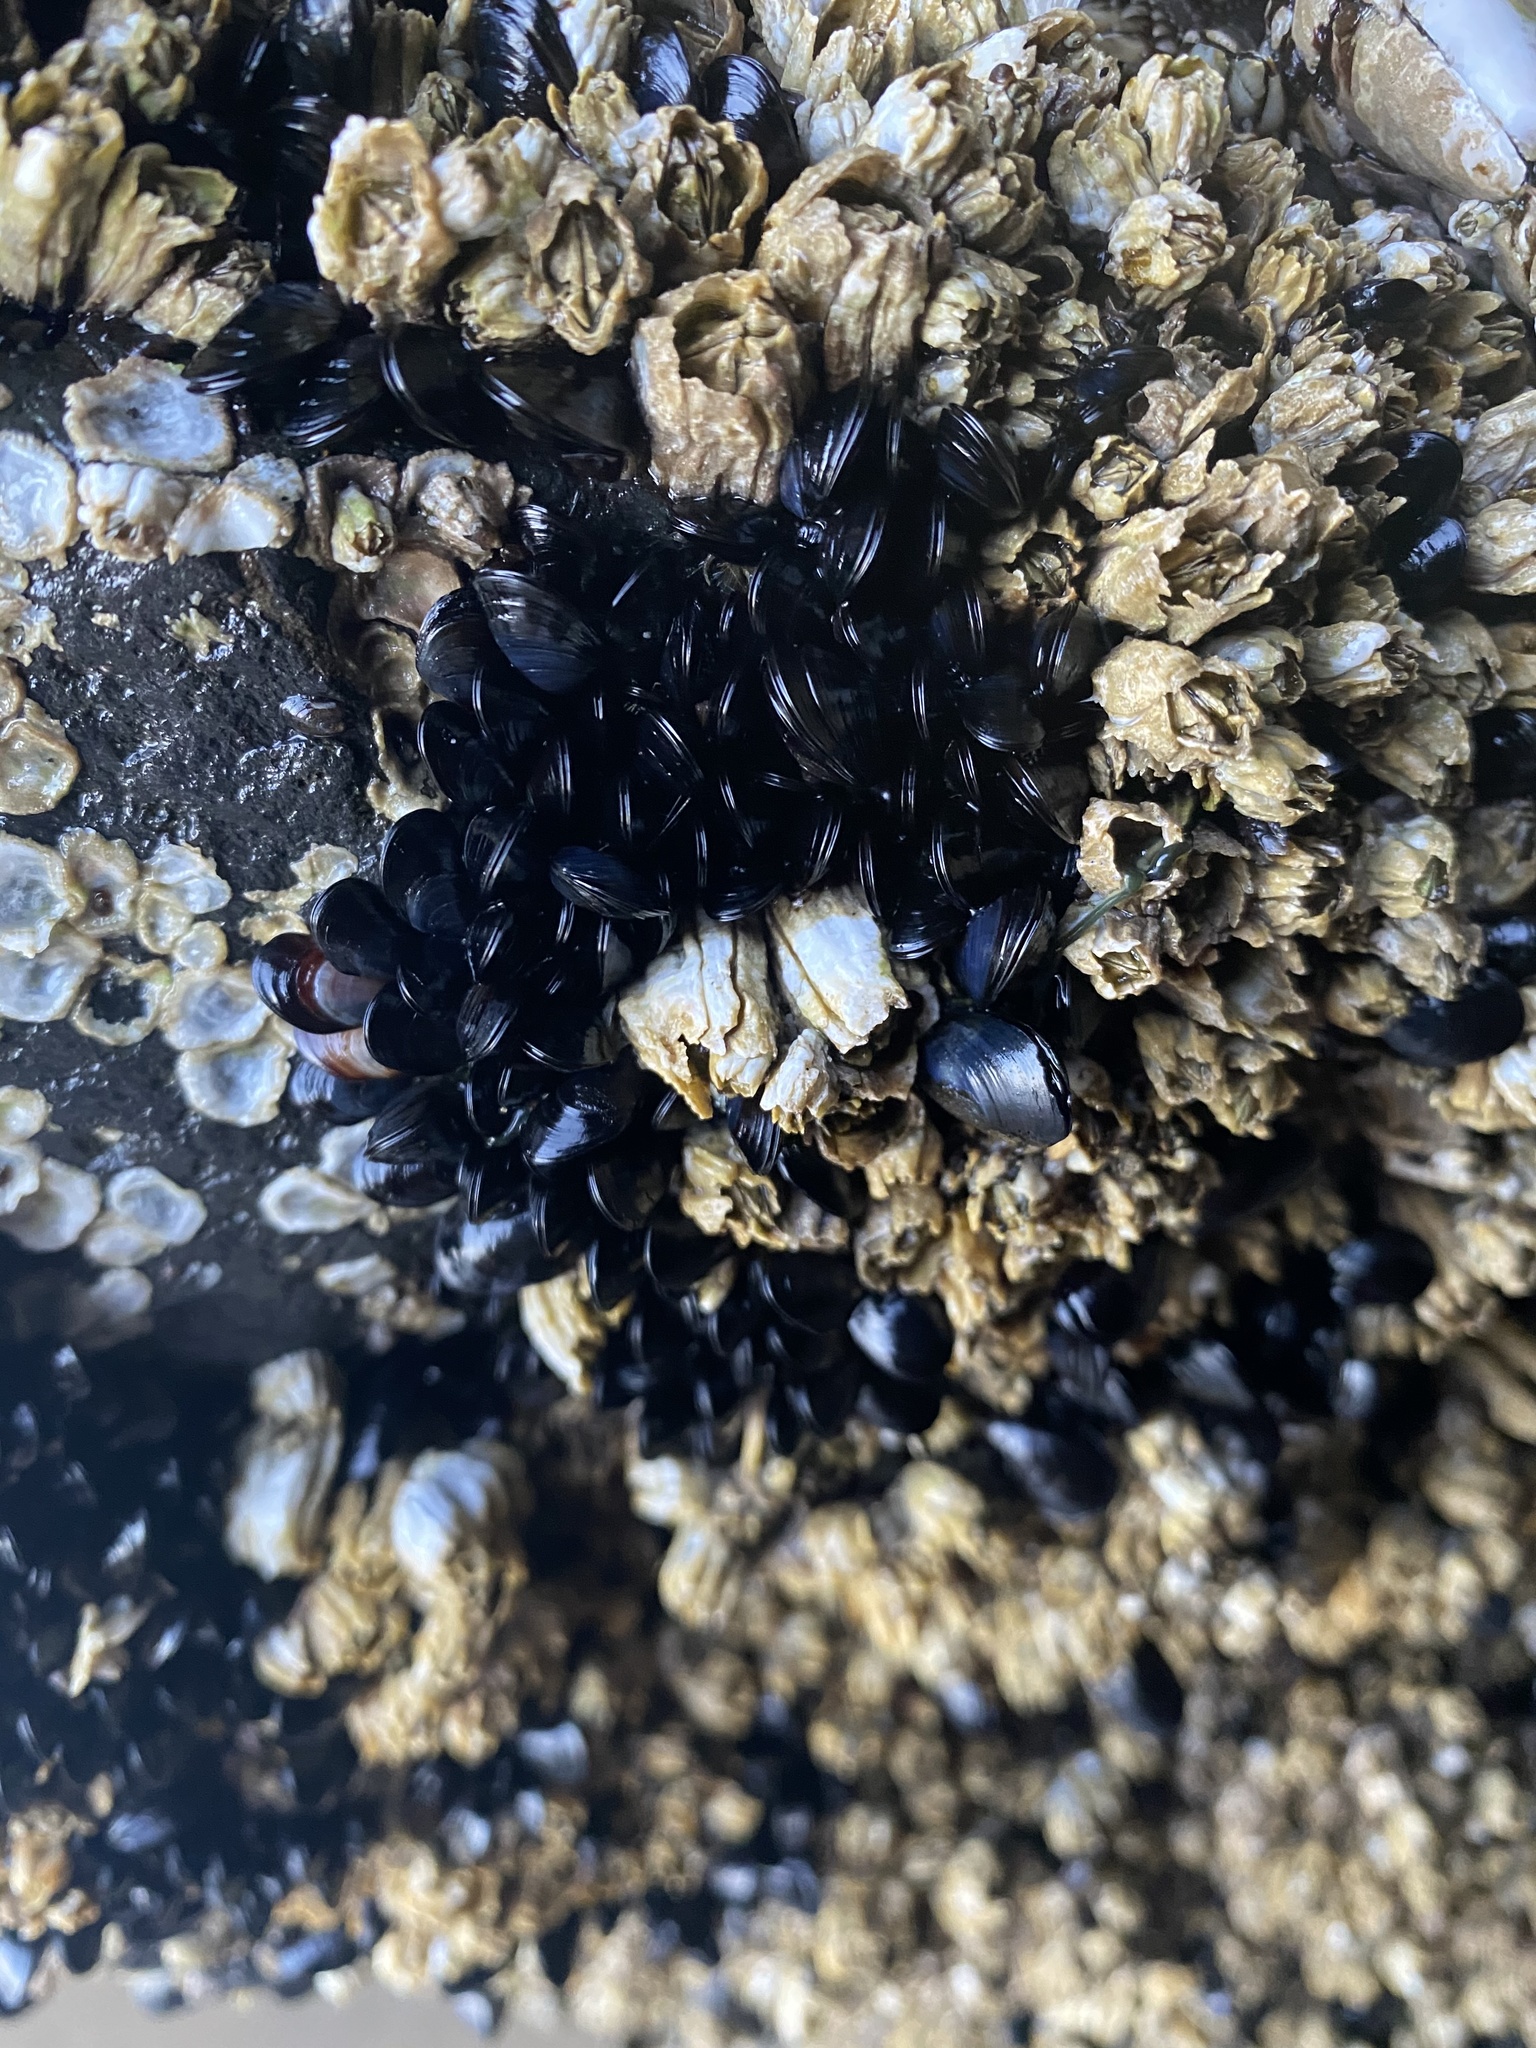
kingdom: Animalia
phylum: Mollusca
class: Bivalvia
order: Mytilida
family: Mytilidae
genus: Mytilus
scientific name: Mytilus trossulus
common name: Northern blue mussel
